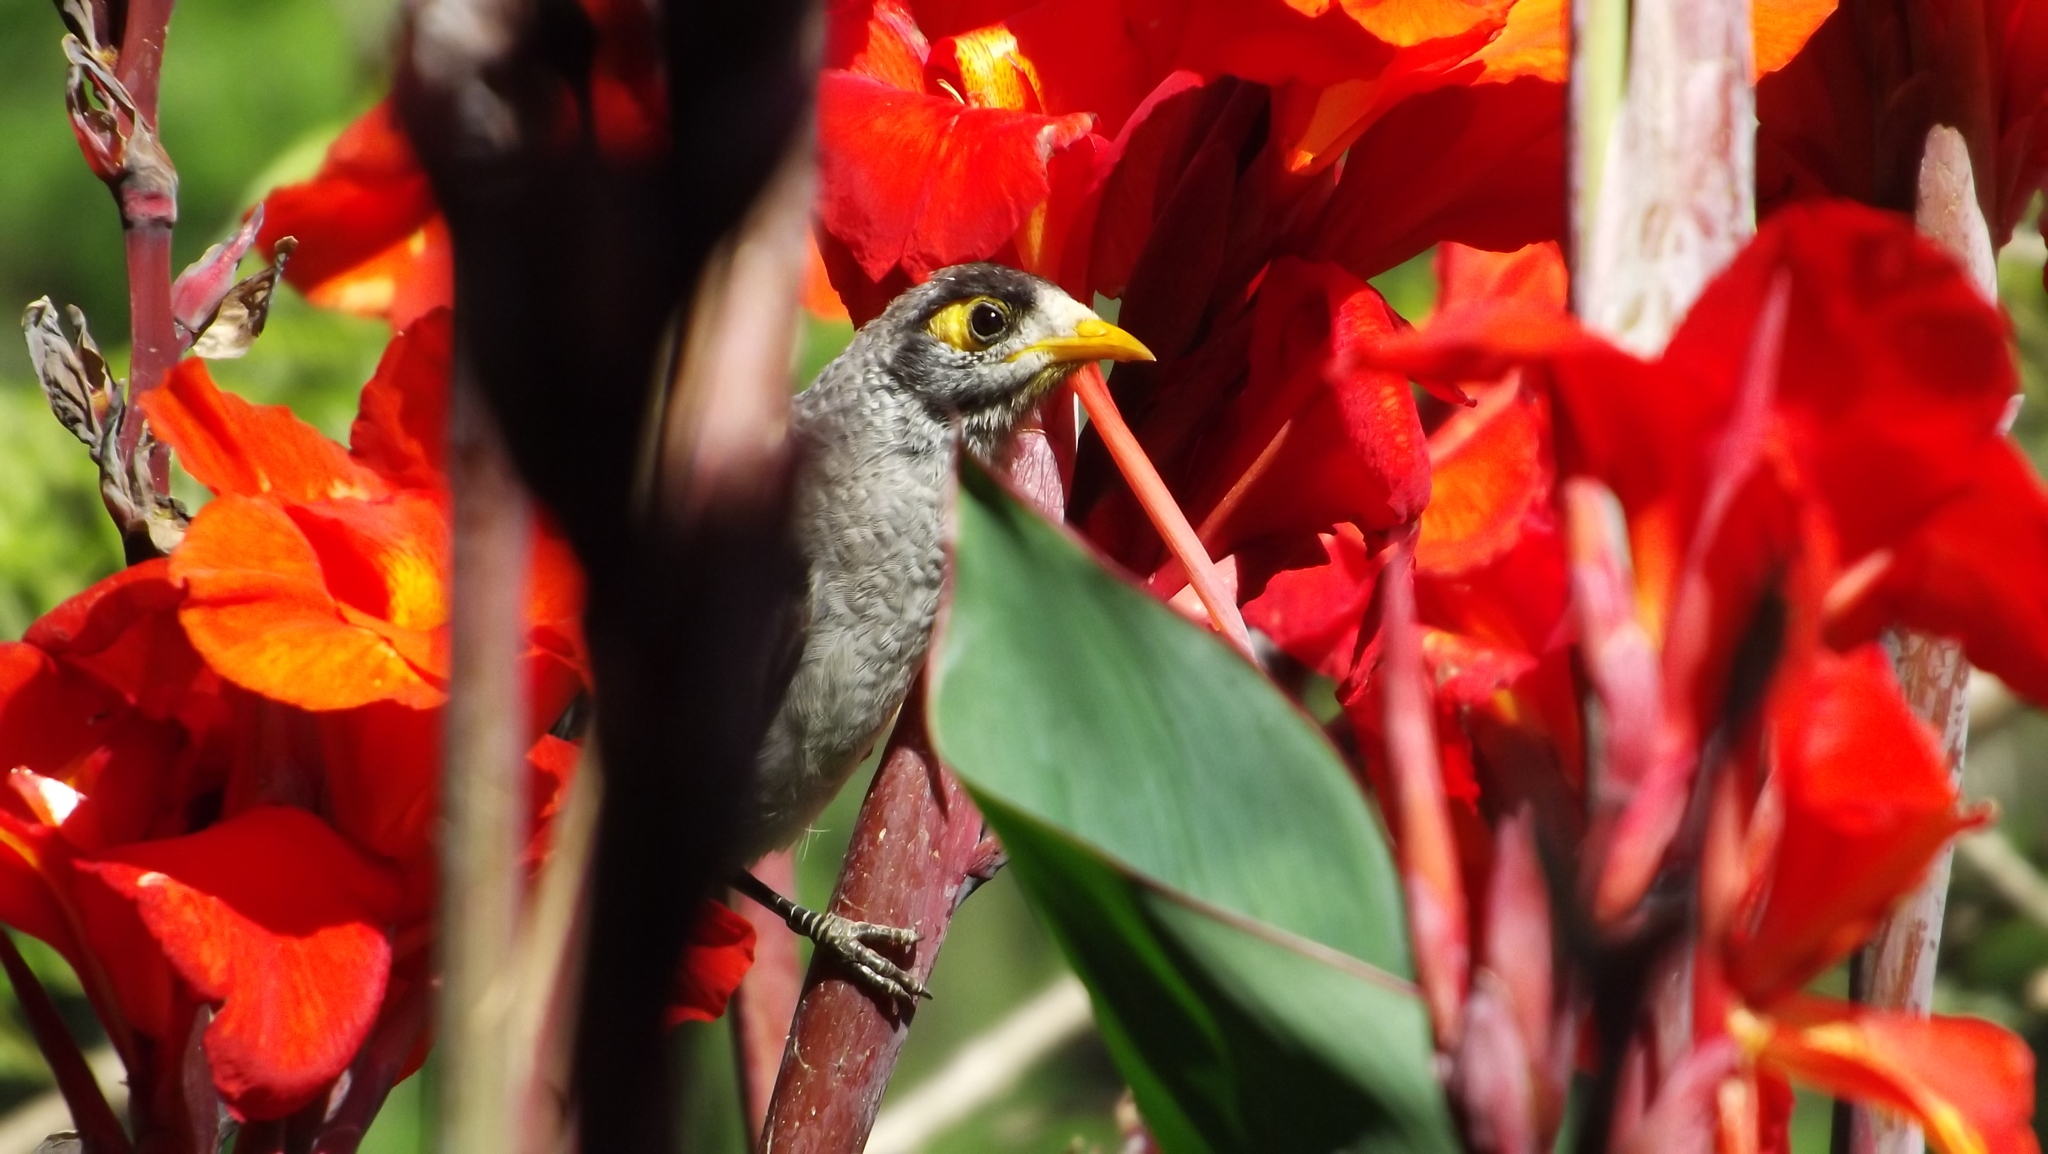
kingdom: Animalia
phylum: Chordata
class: Aves
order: Passeriformes
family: Meliphagidae
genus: Manorina
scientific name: Manorina melanocephala
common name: Noisy miner
